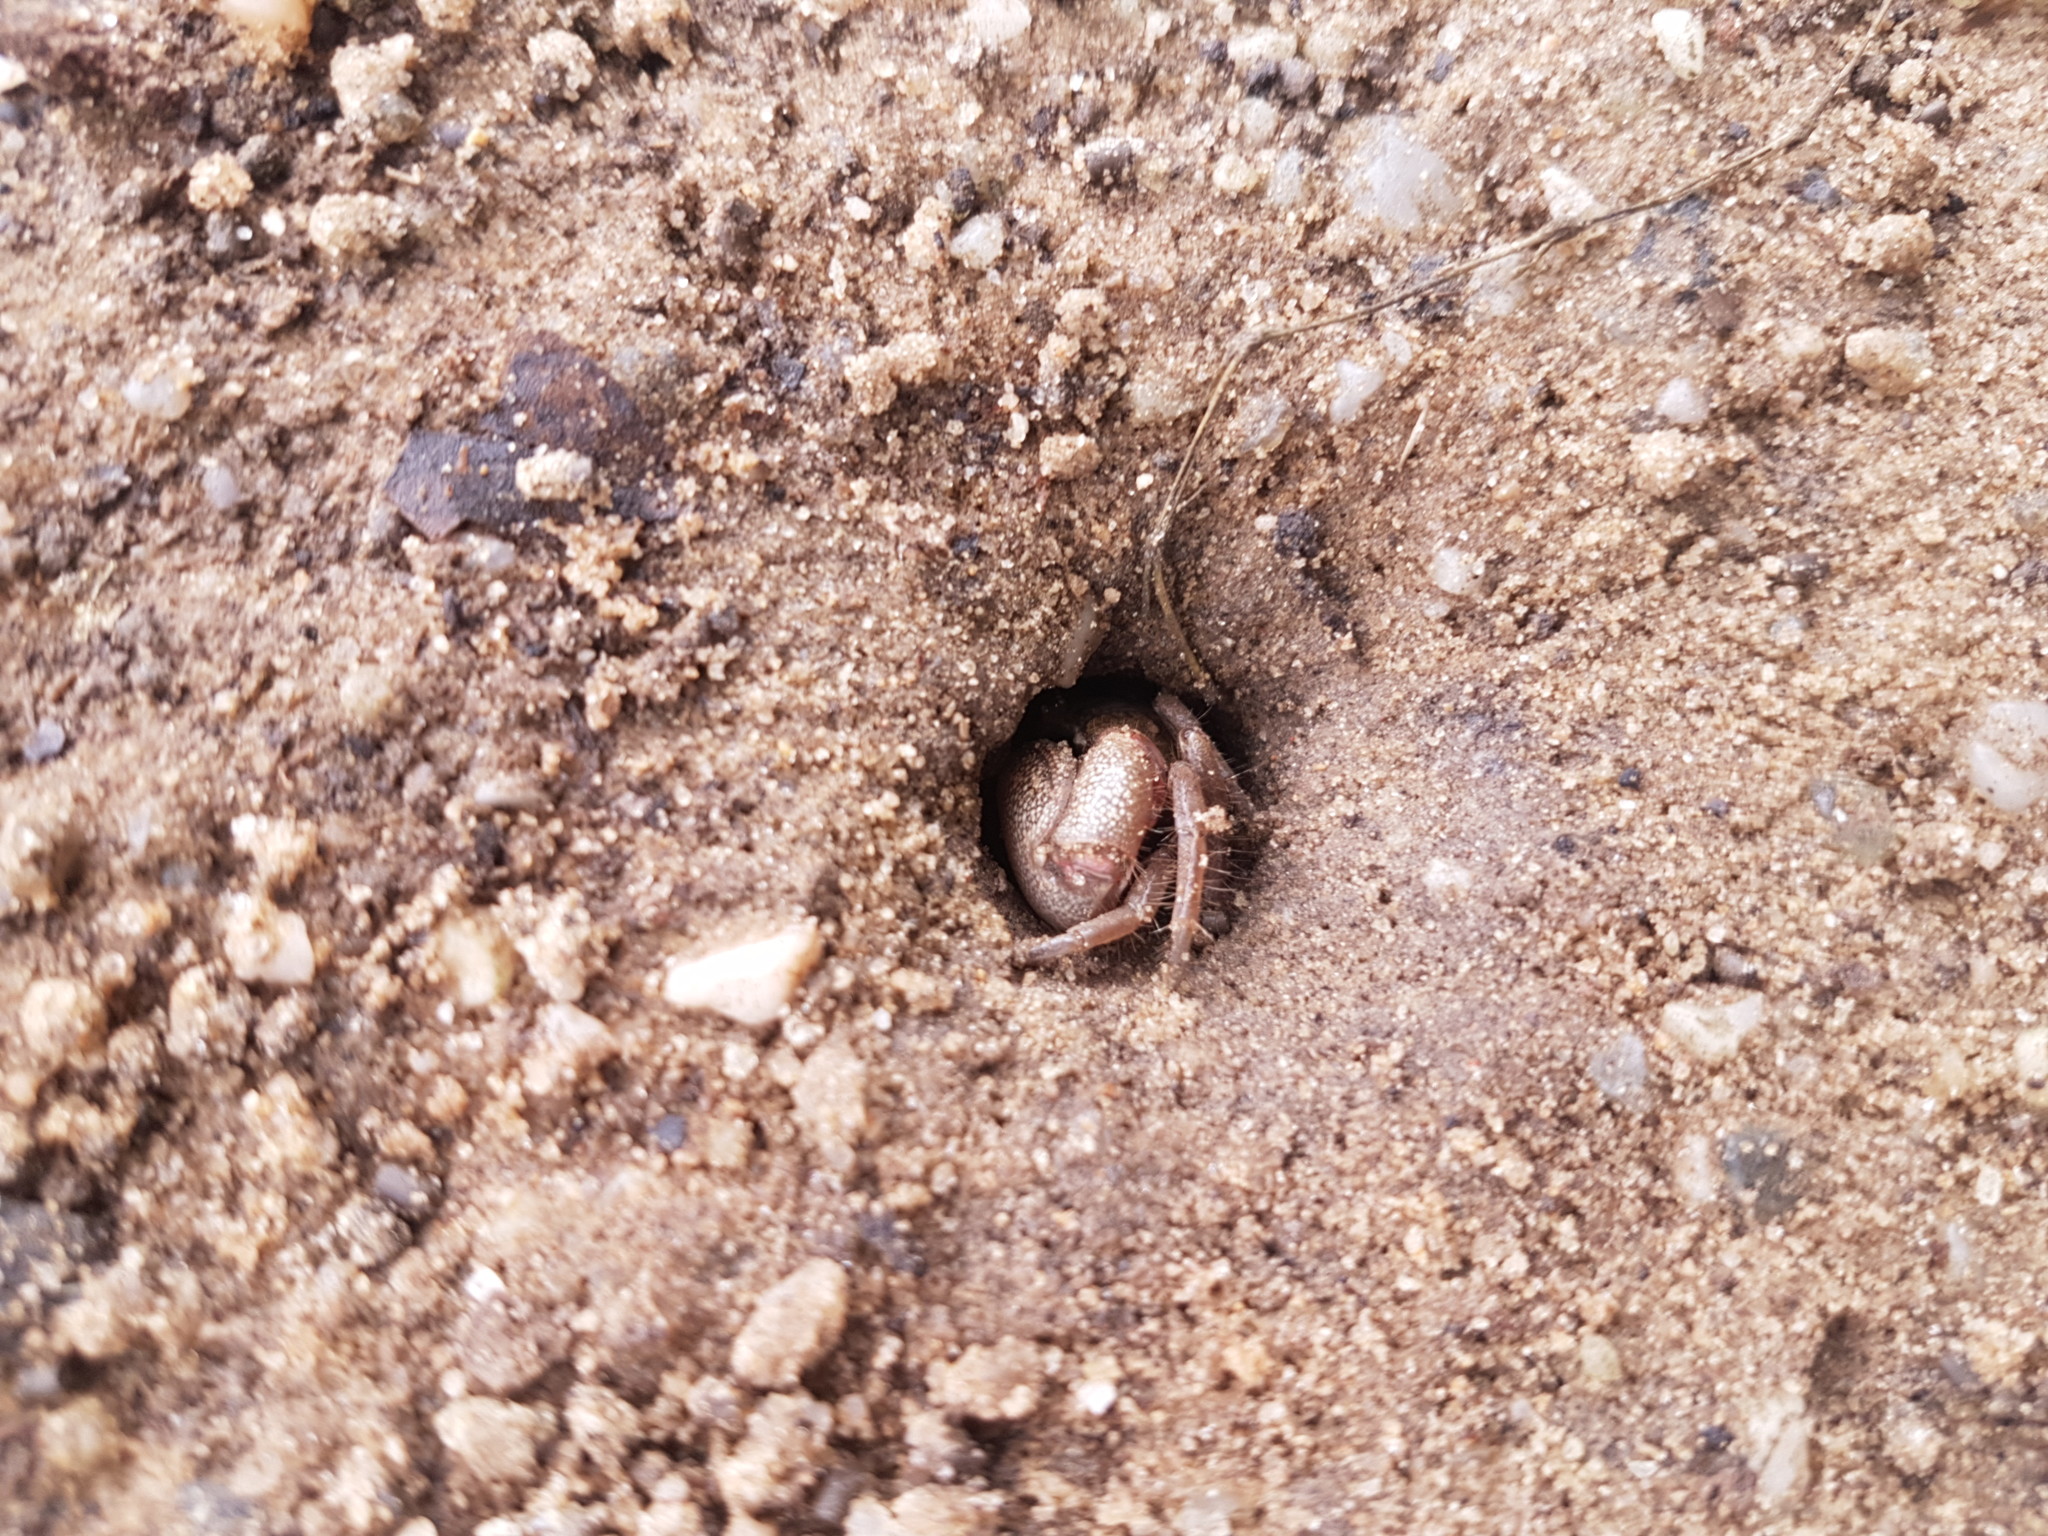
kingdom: Animalia
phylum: Arthropoda
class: Malacostraca
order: Decapoda
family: Ocypodidae
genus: Leptuca
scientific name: Leptuca pugilator
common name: Atlantic sand fiddler crab
